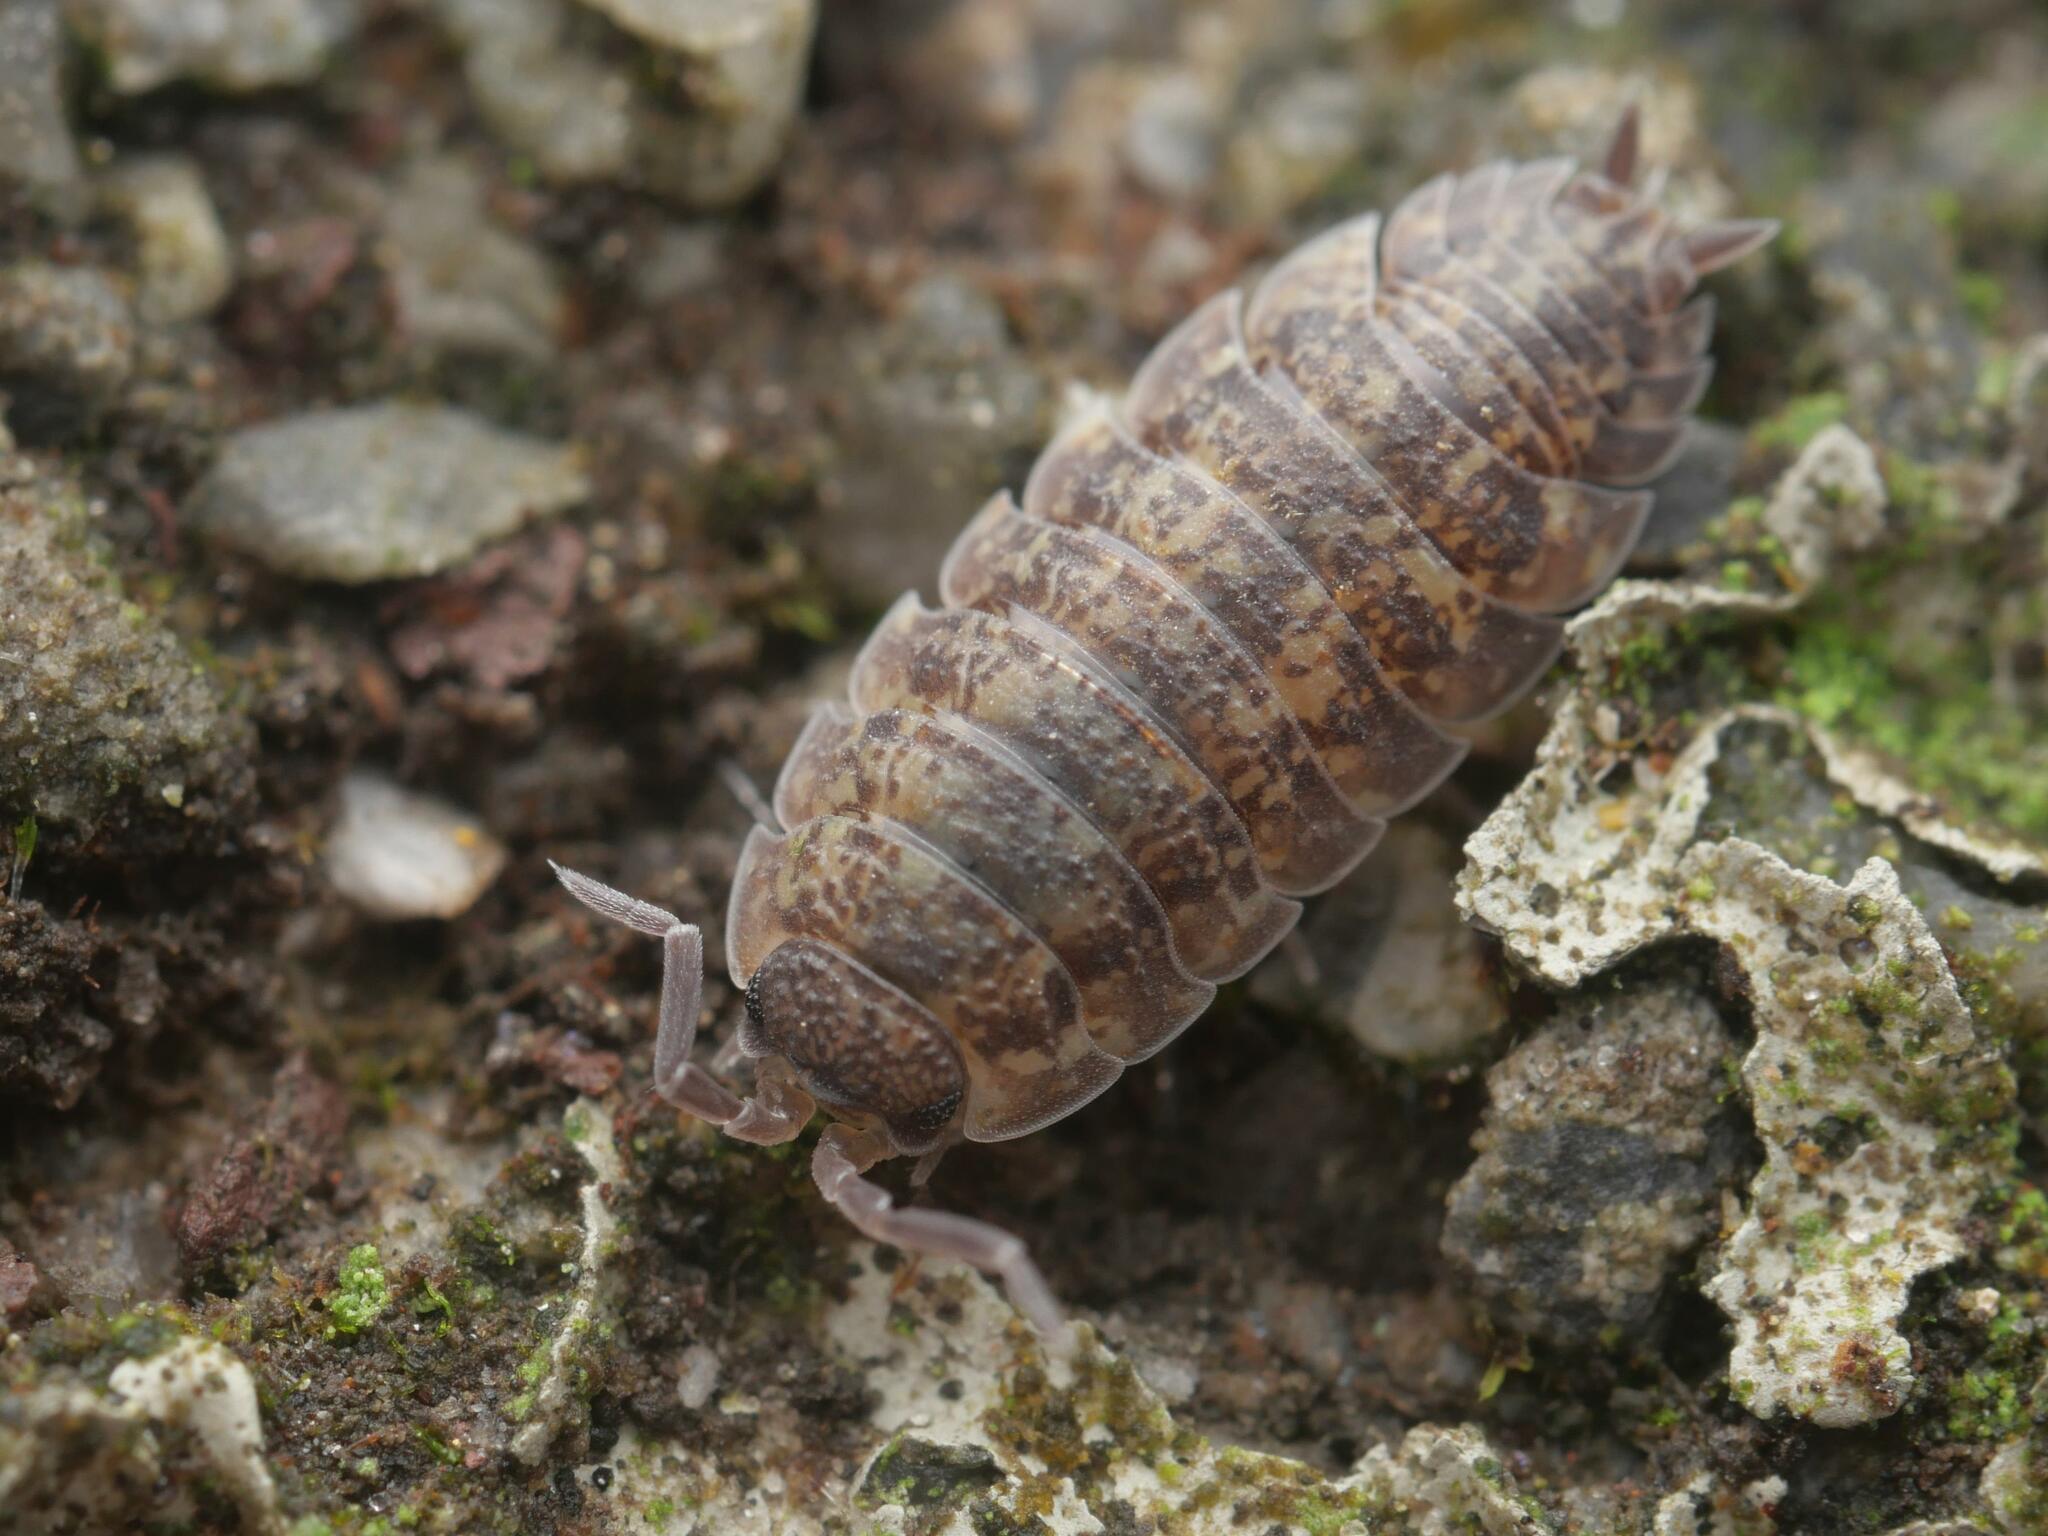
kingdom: Animalia
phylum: Arthropoda
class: Malacostraca
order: Isopoda
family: Porcellionidae
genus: Porcellio
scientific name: Porcellio scaber
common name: Common rough woodlouse
